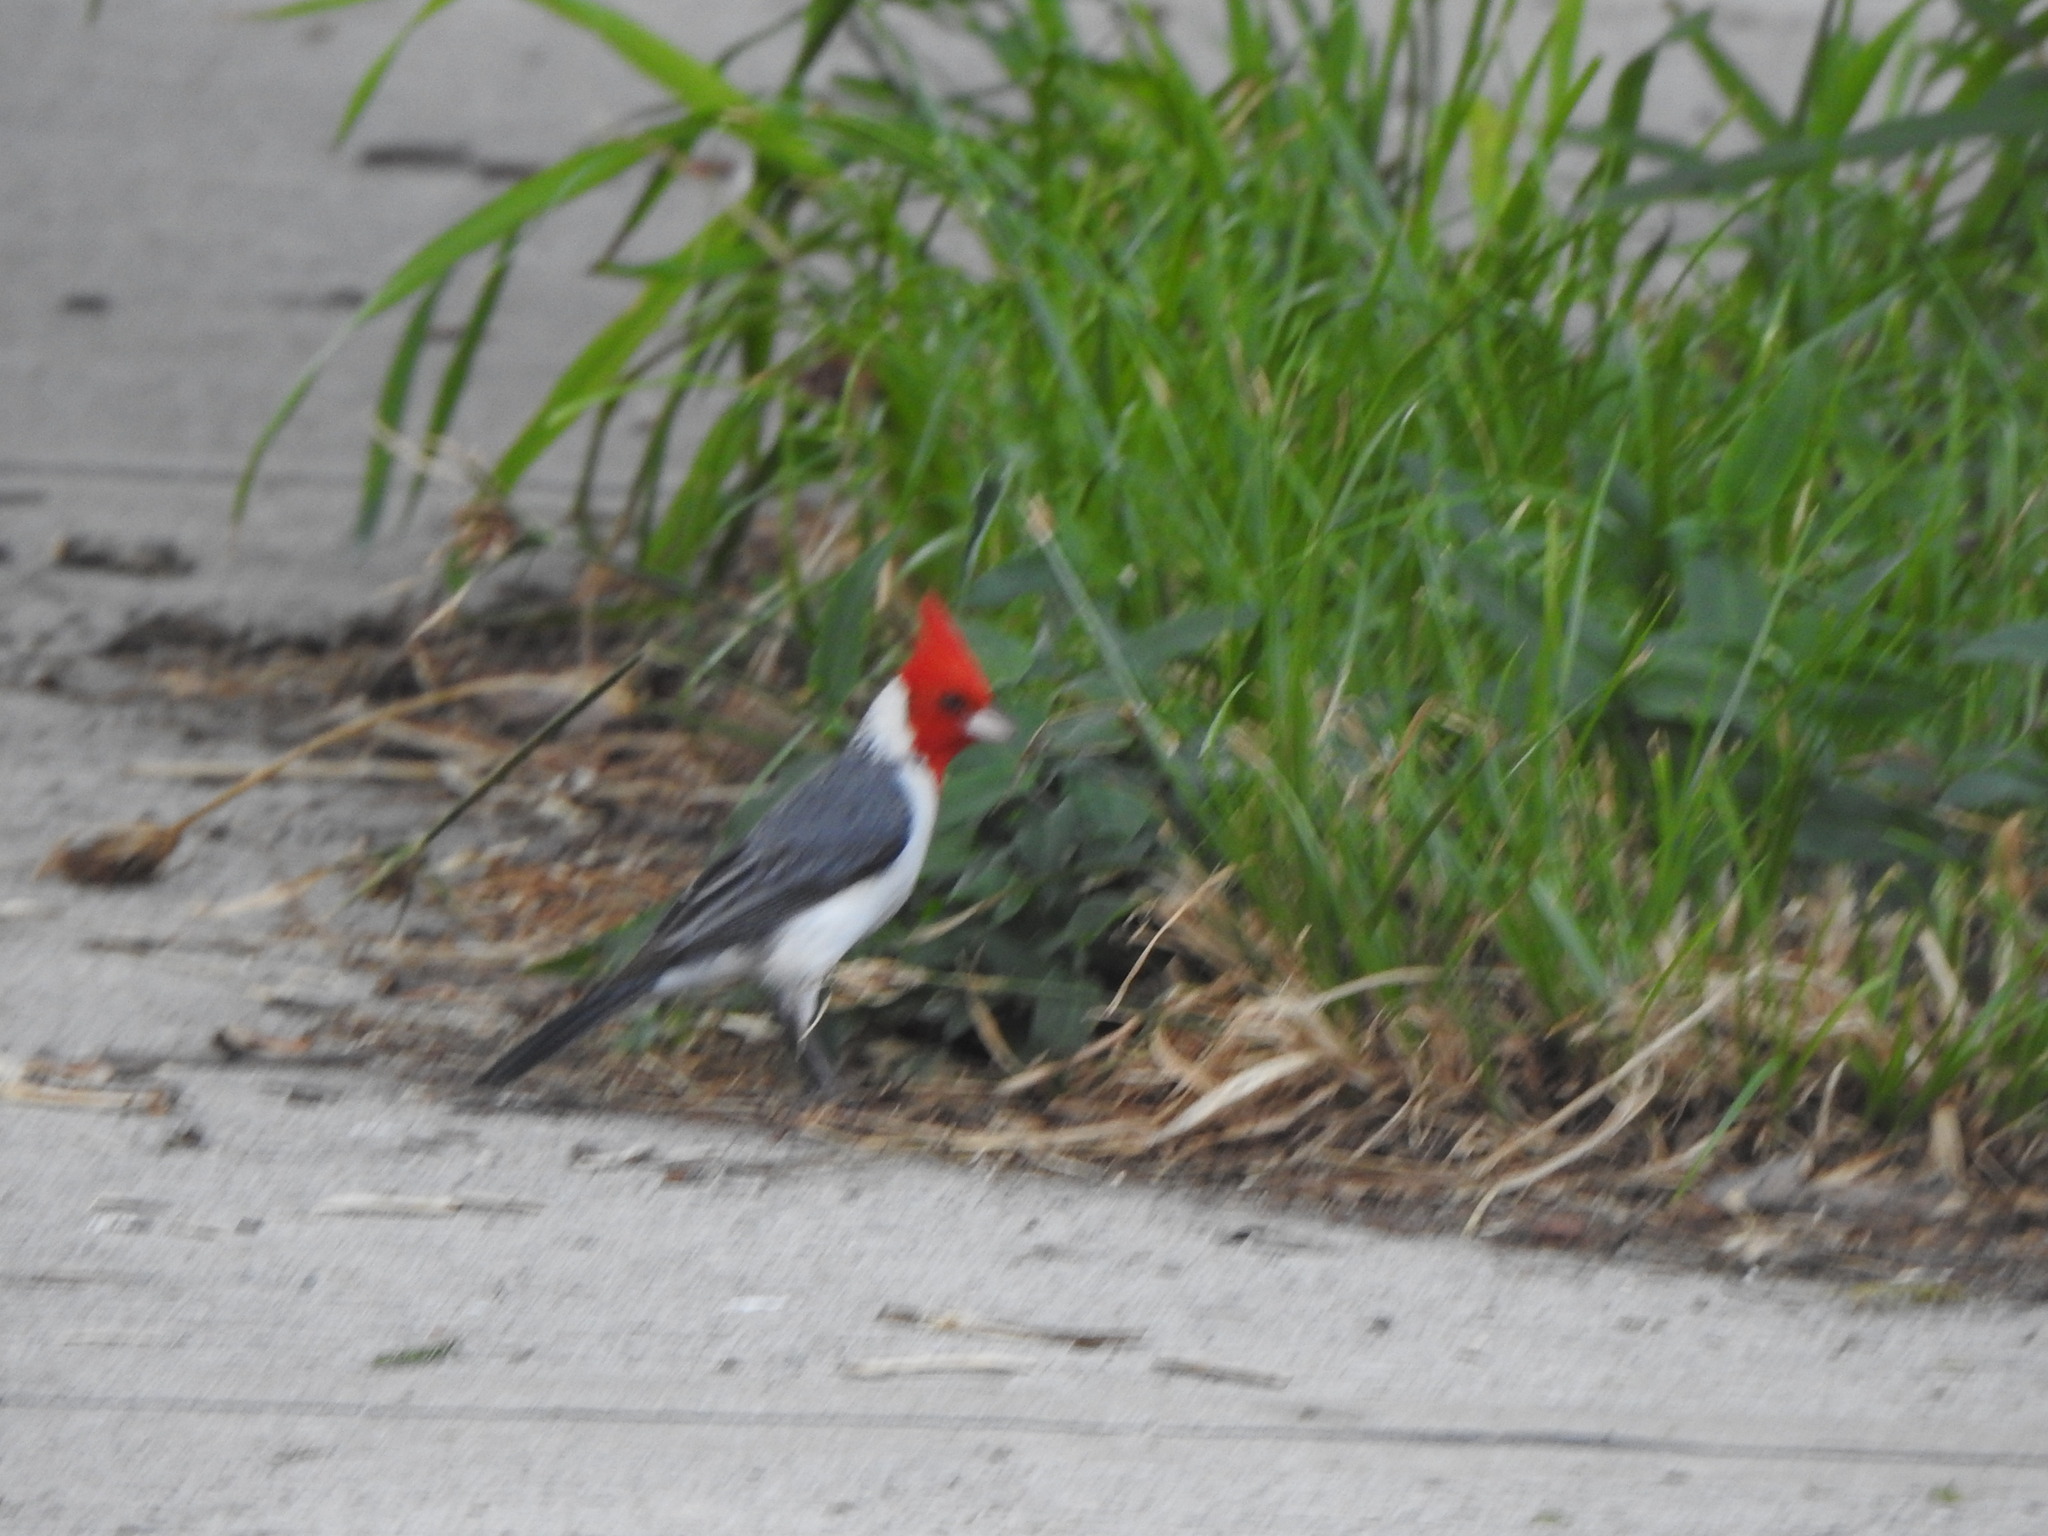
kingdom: Animalia
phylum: Chordata
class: Aves
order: Passeriformes
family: Thraupidae
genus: Paroaria
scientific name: Paroaria coronata
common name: Red-crested cardinal
